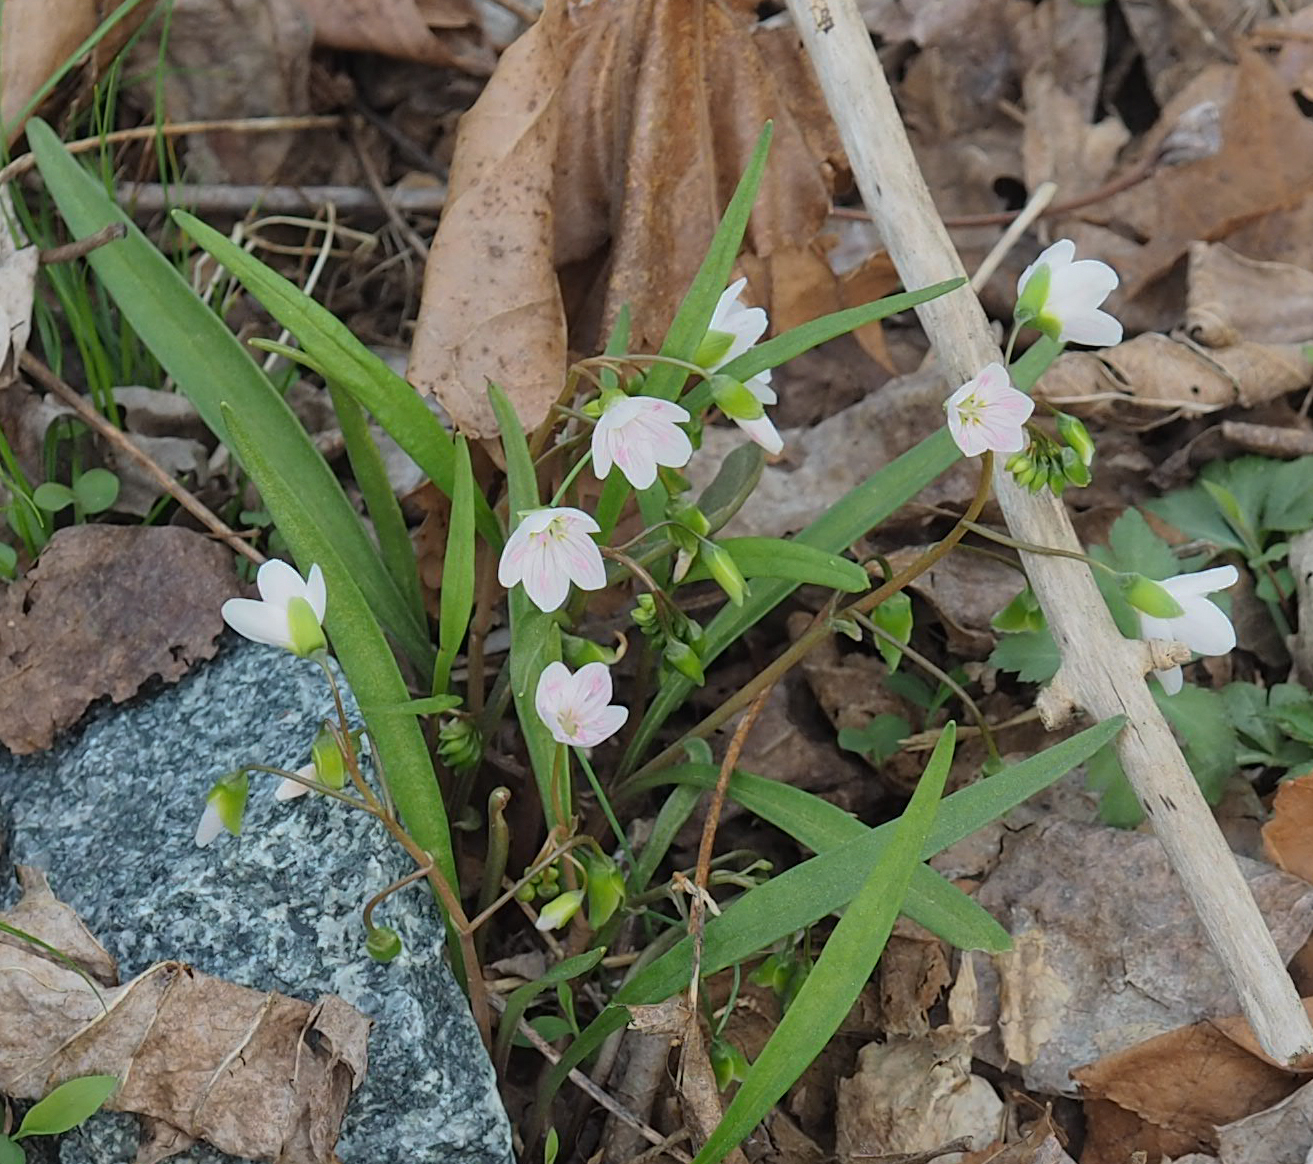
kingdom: Plantae
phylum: Tracheophyta
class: Magnoliopsida
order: Caryophyllales
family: Montiaceae
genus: Claytonia
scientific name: Claytonia virginica
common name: Virginia springbeauty
